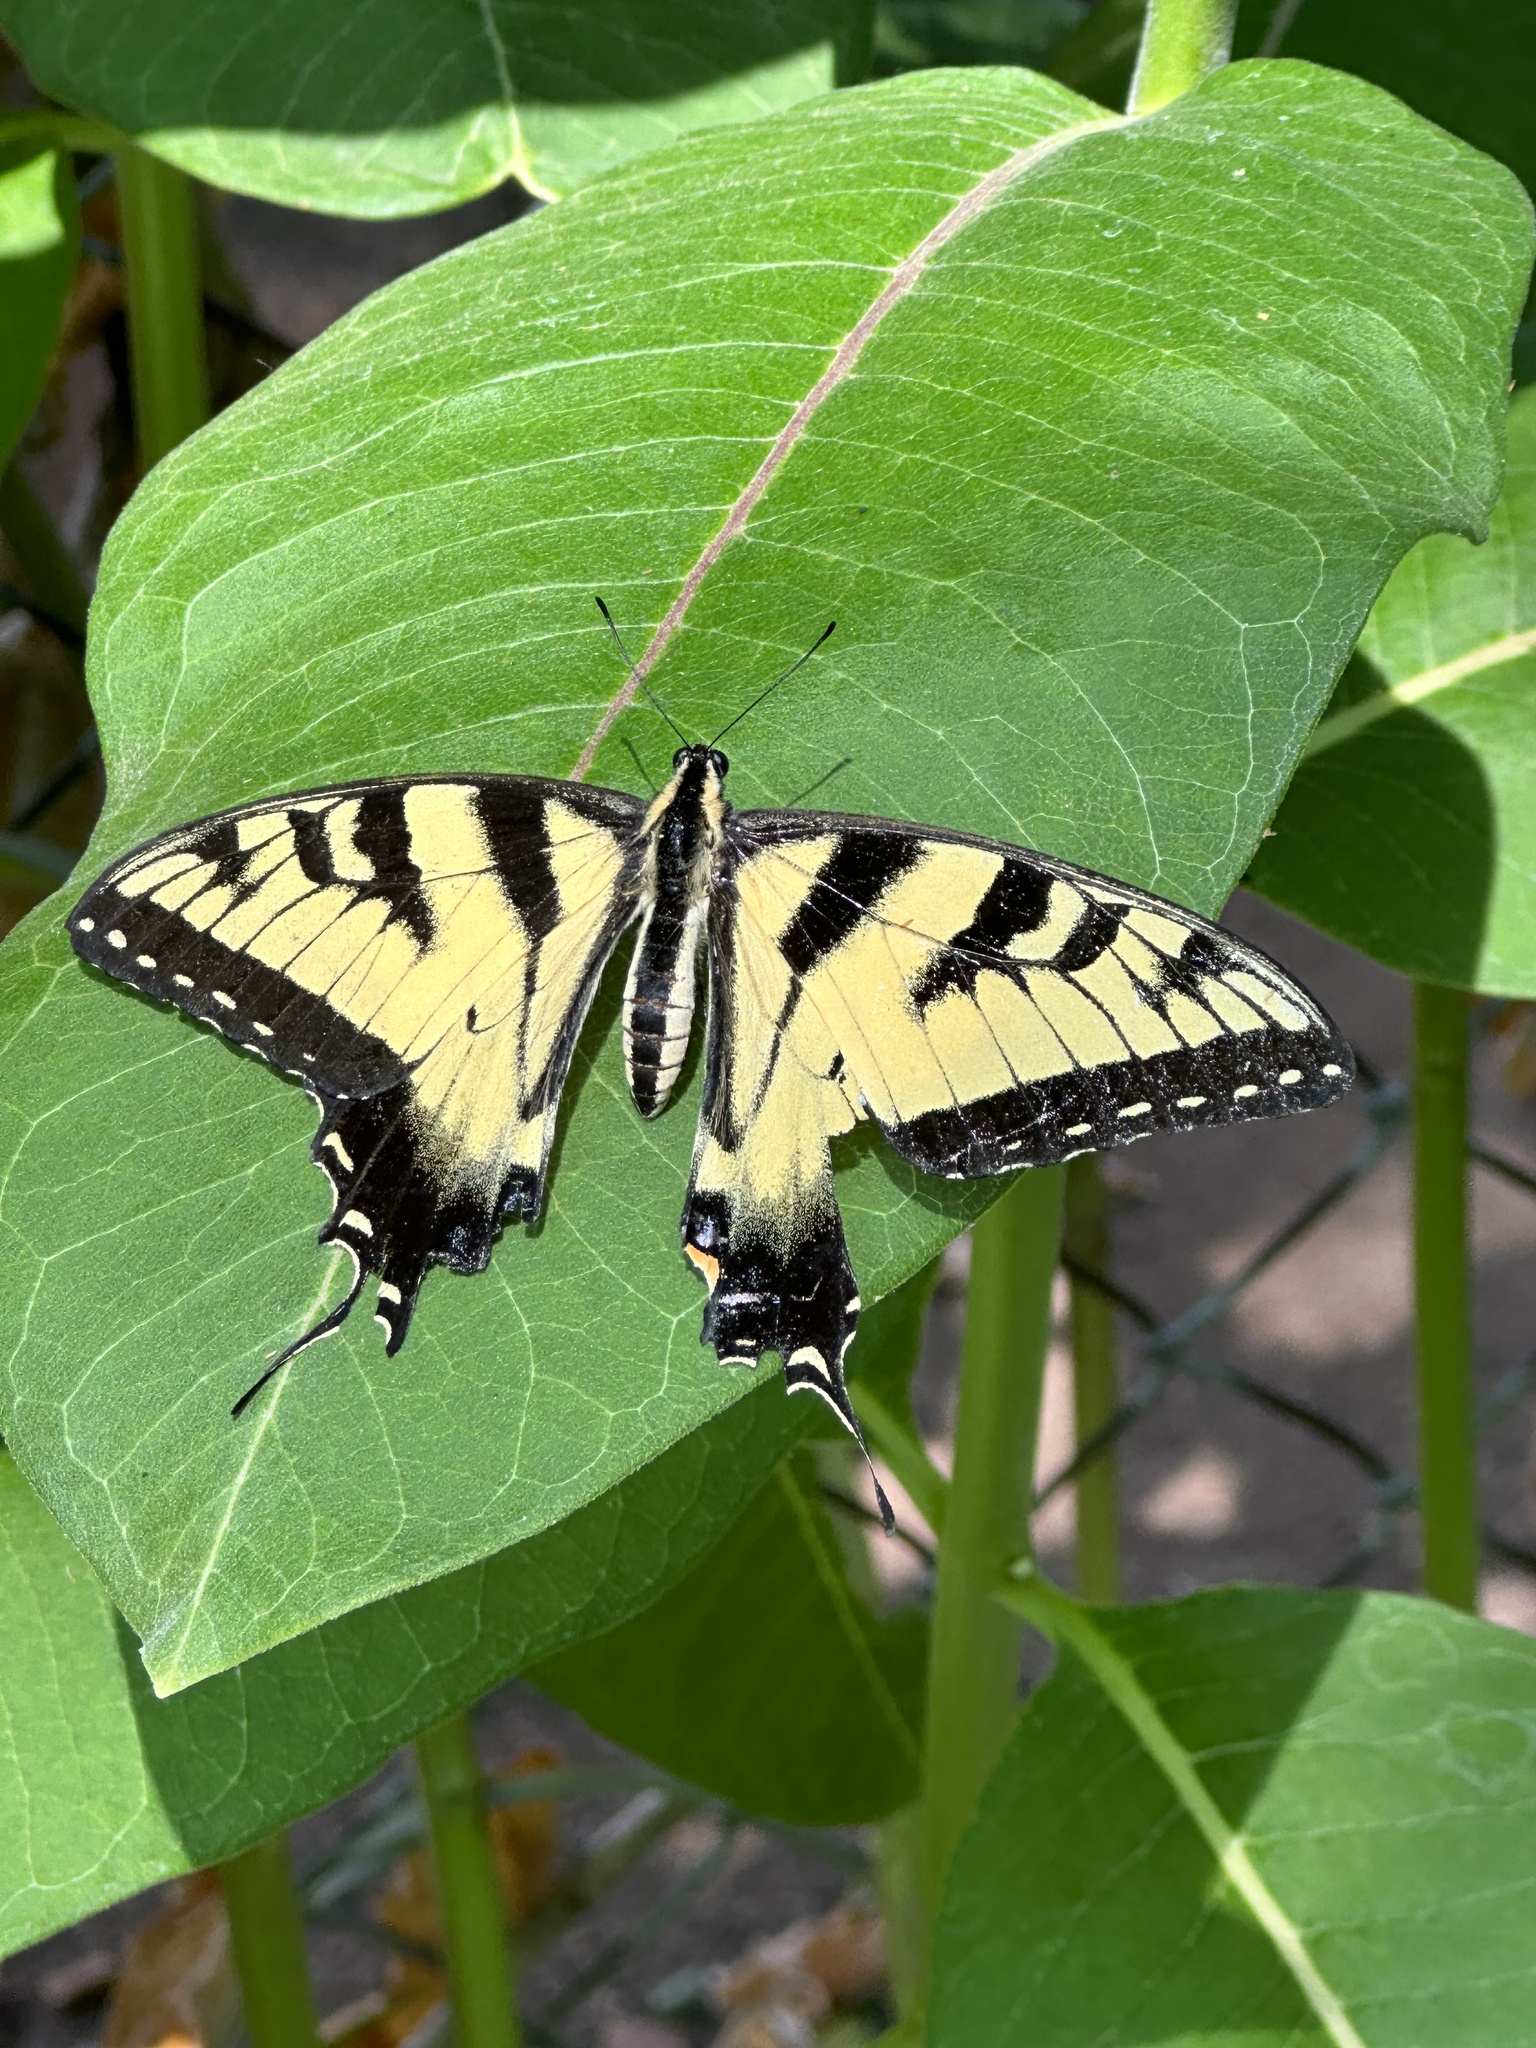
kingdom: Animalia
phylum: Arthropoda
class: Insecta
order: Lepidoptera
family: Papilionidae
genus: Papilio
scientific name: Papilio glaucus
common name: Tiger swallowtail
